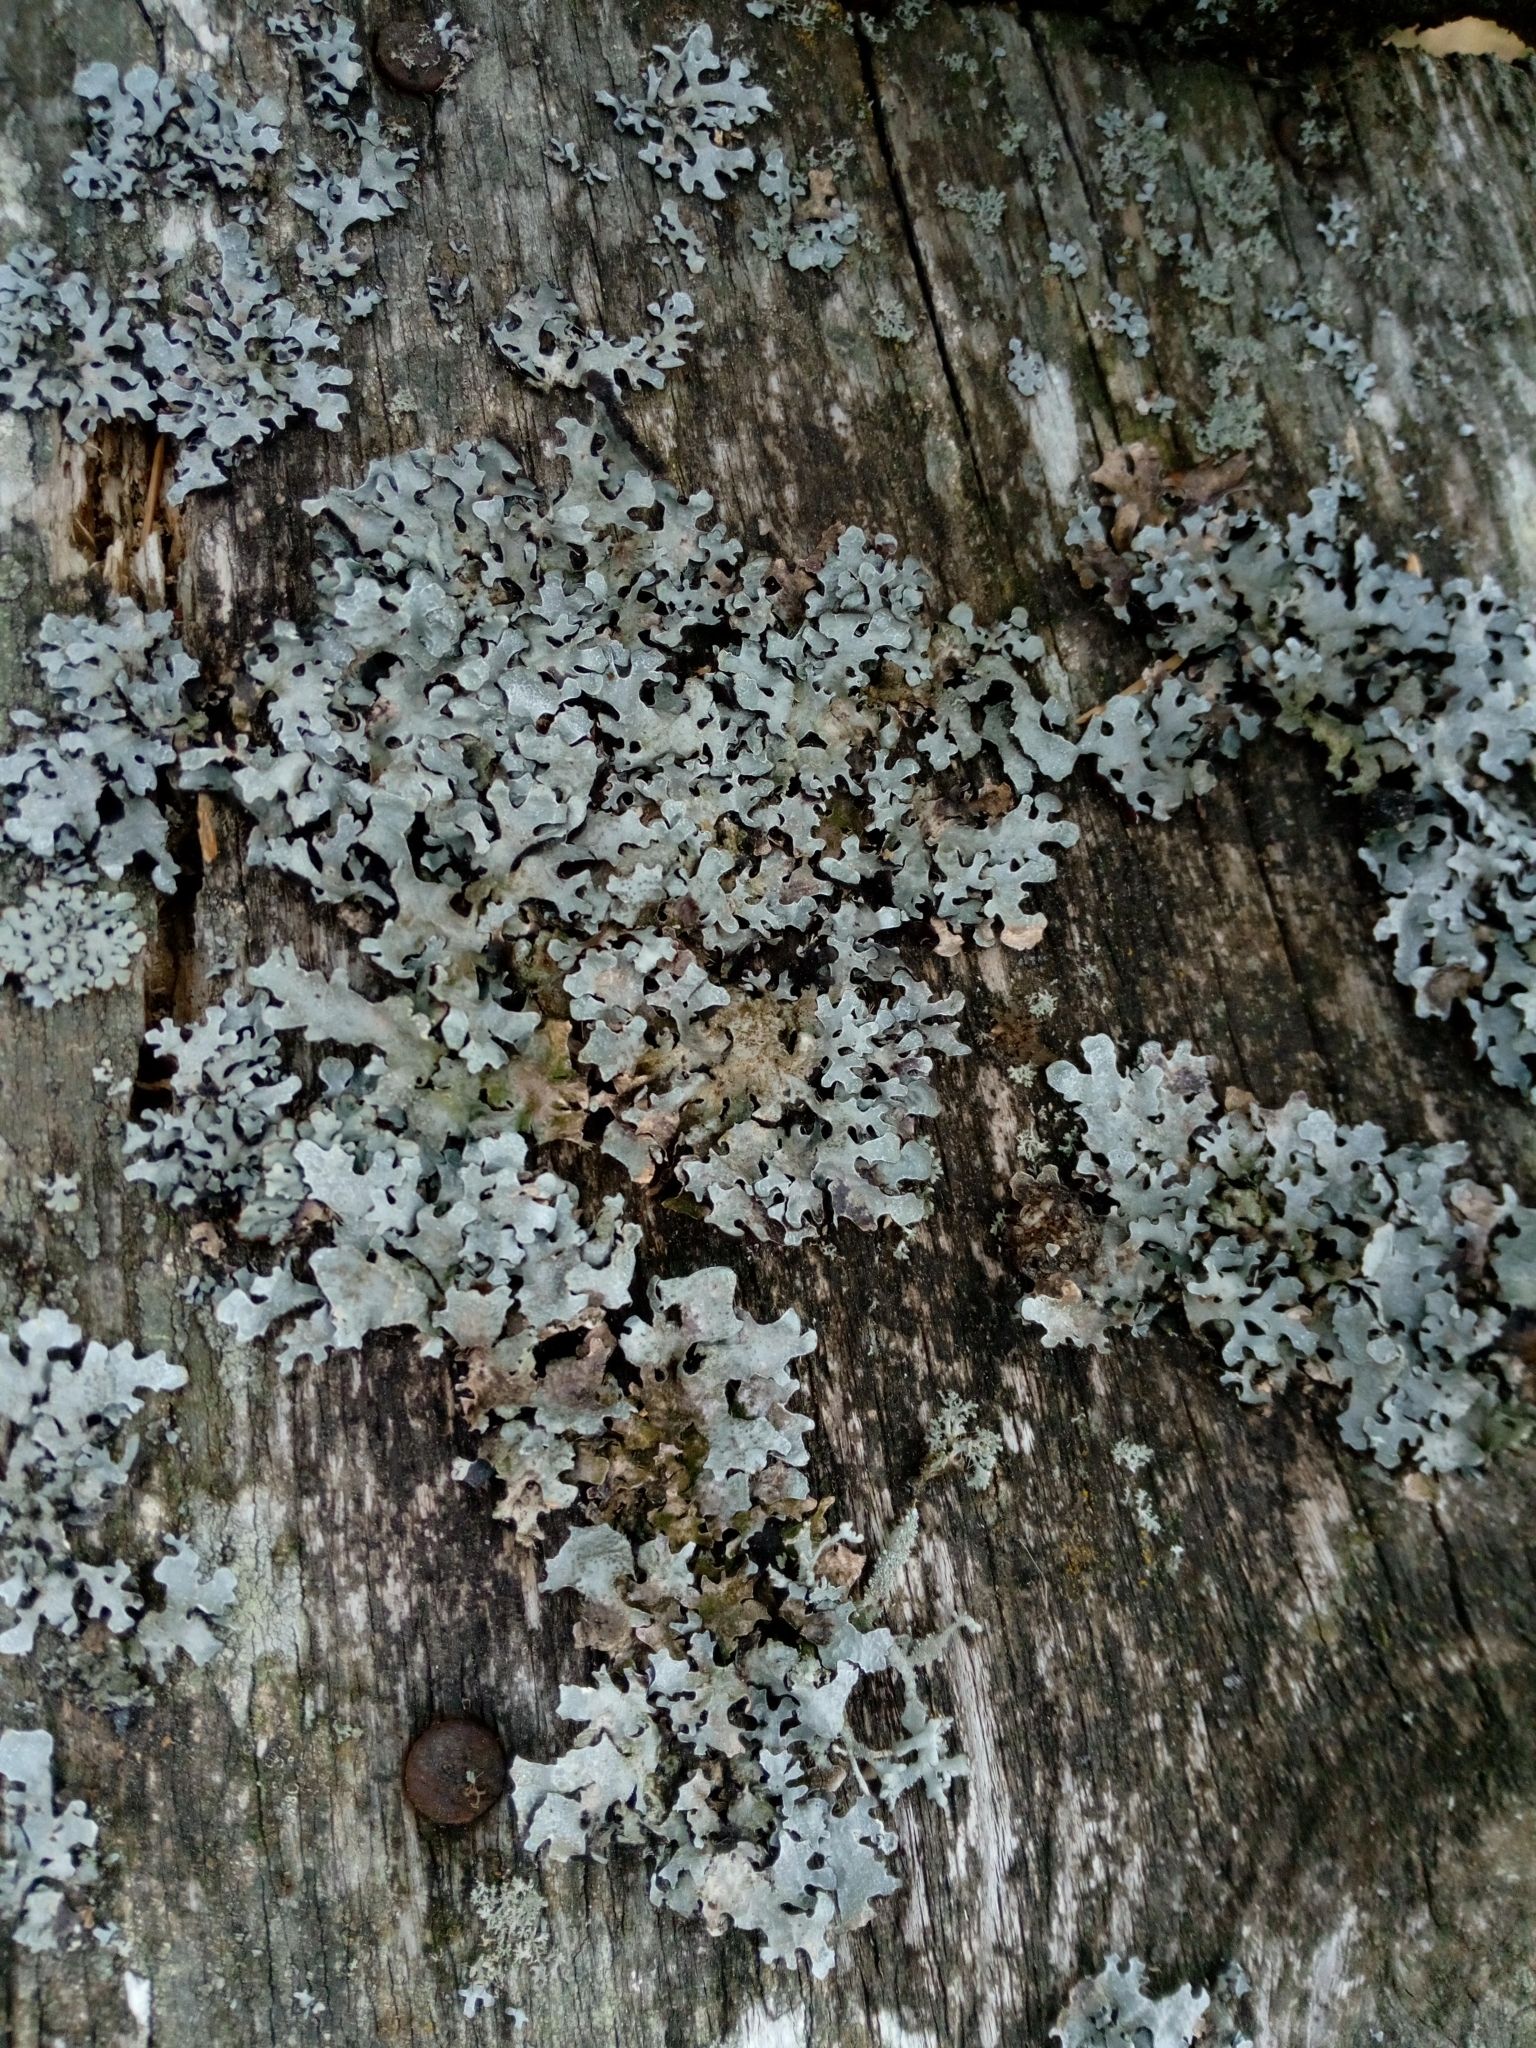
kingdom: Fungi
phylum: Ascomycota
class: Lecanoromycetes
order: Lecanorales
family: Parmeliaceae
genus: Parmelia
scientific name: Parmelia sulcata
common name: Netted shield lichen
